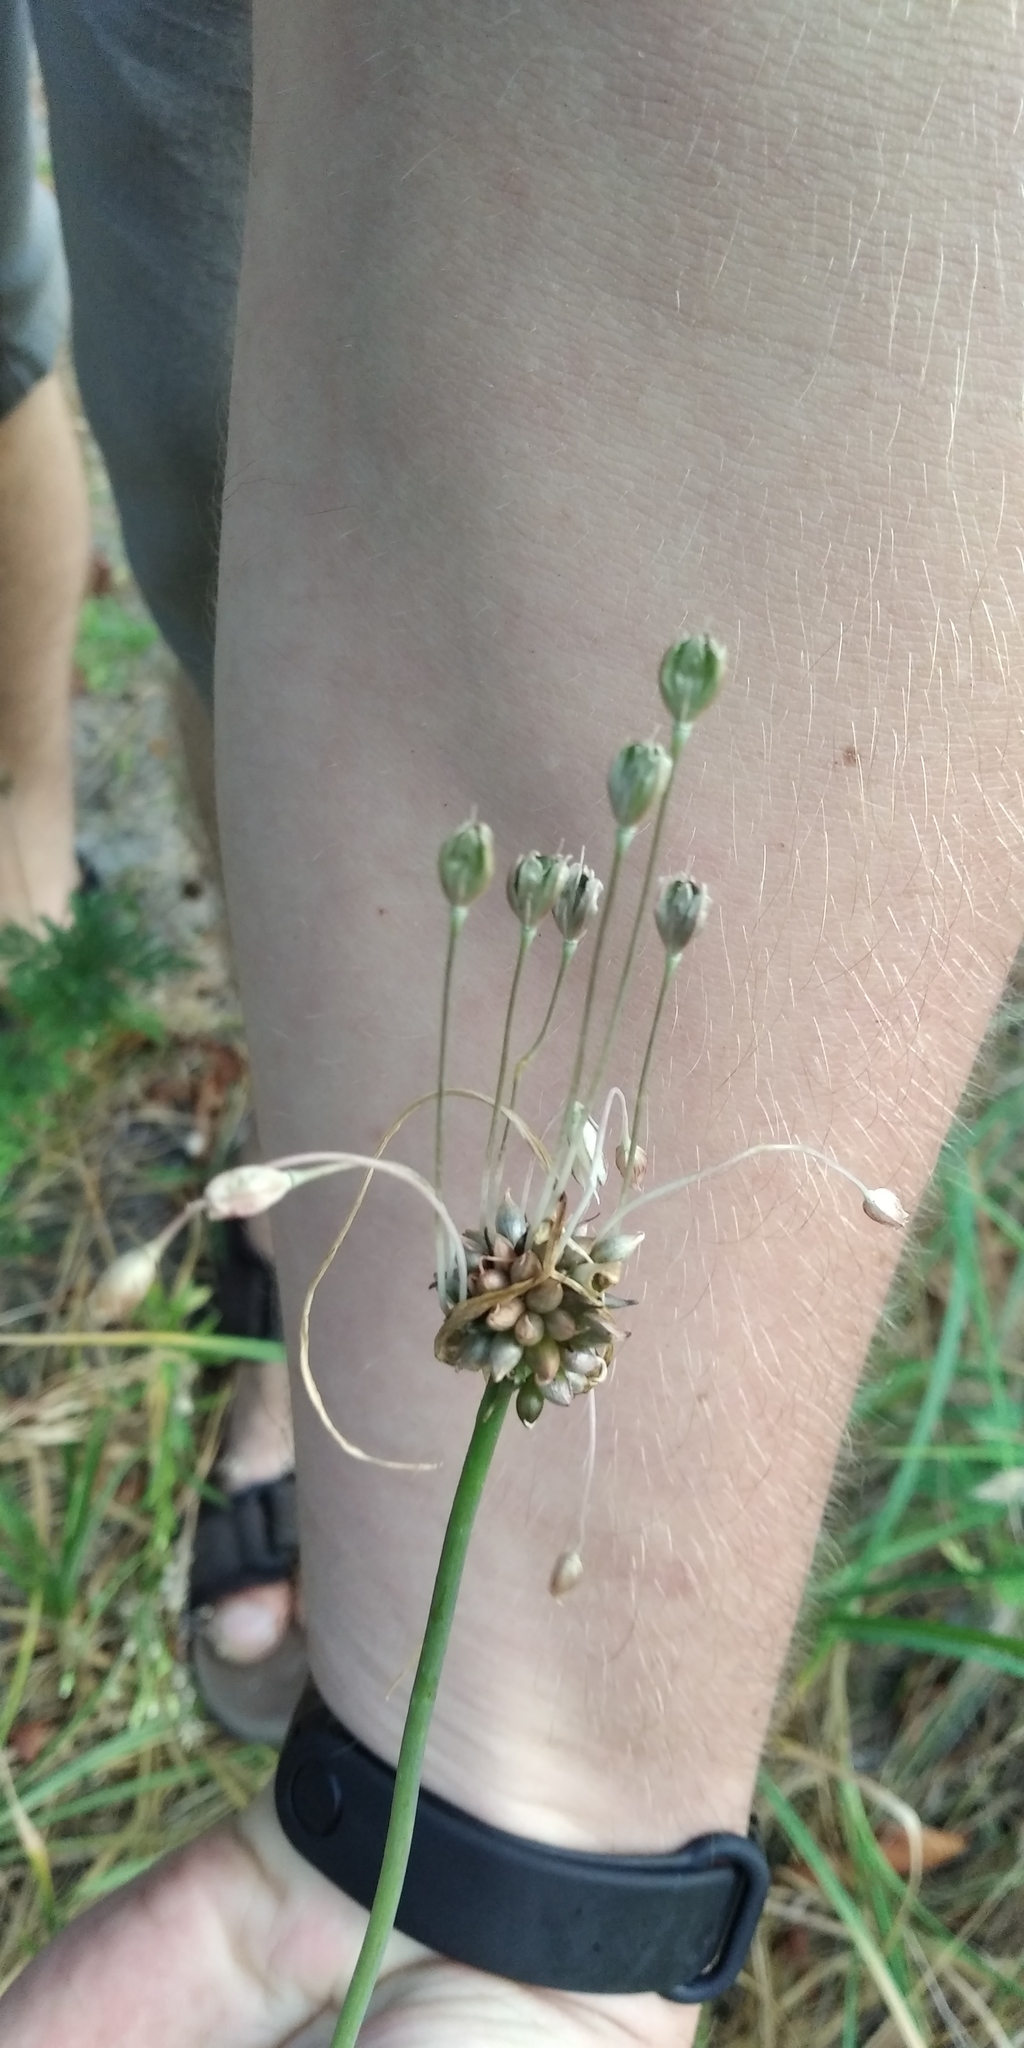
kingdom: Plantae
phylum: Tracheophyta
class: Liliopsida
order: Asparagales
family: Amaryllidaceae
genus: Allium
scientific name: Allium oleraceum
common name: Field garlic
